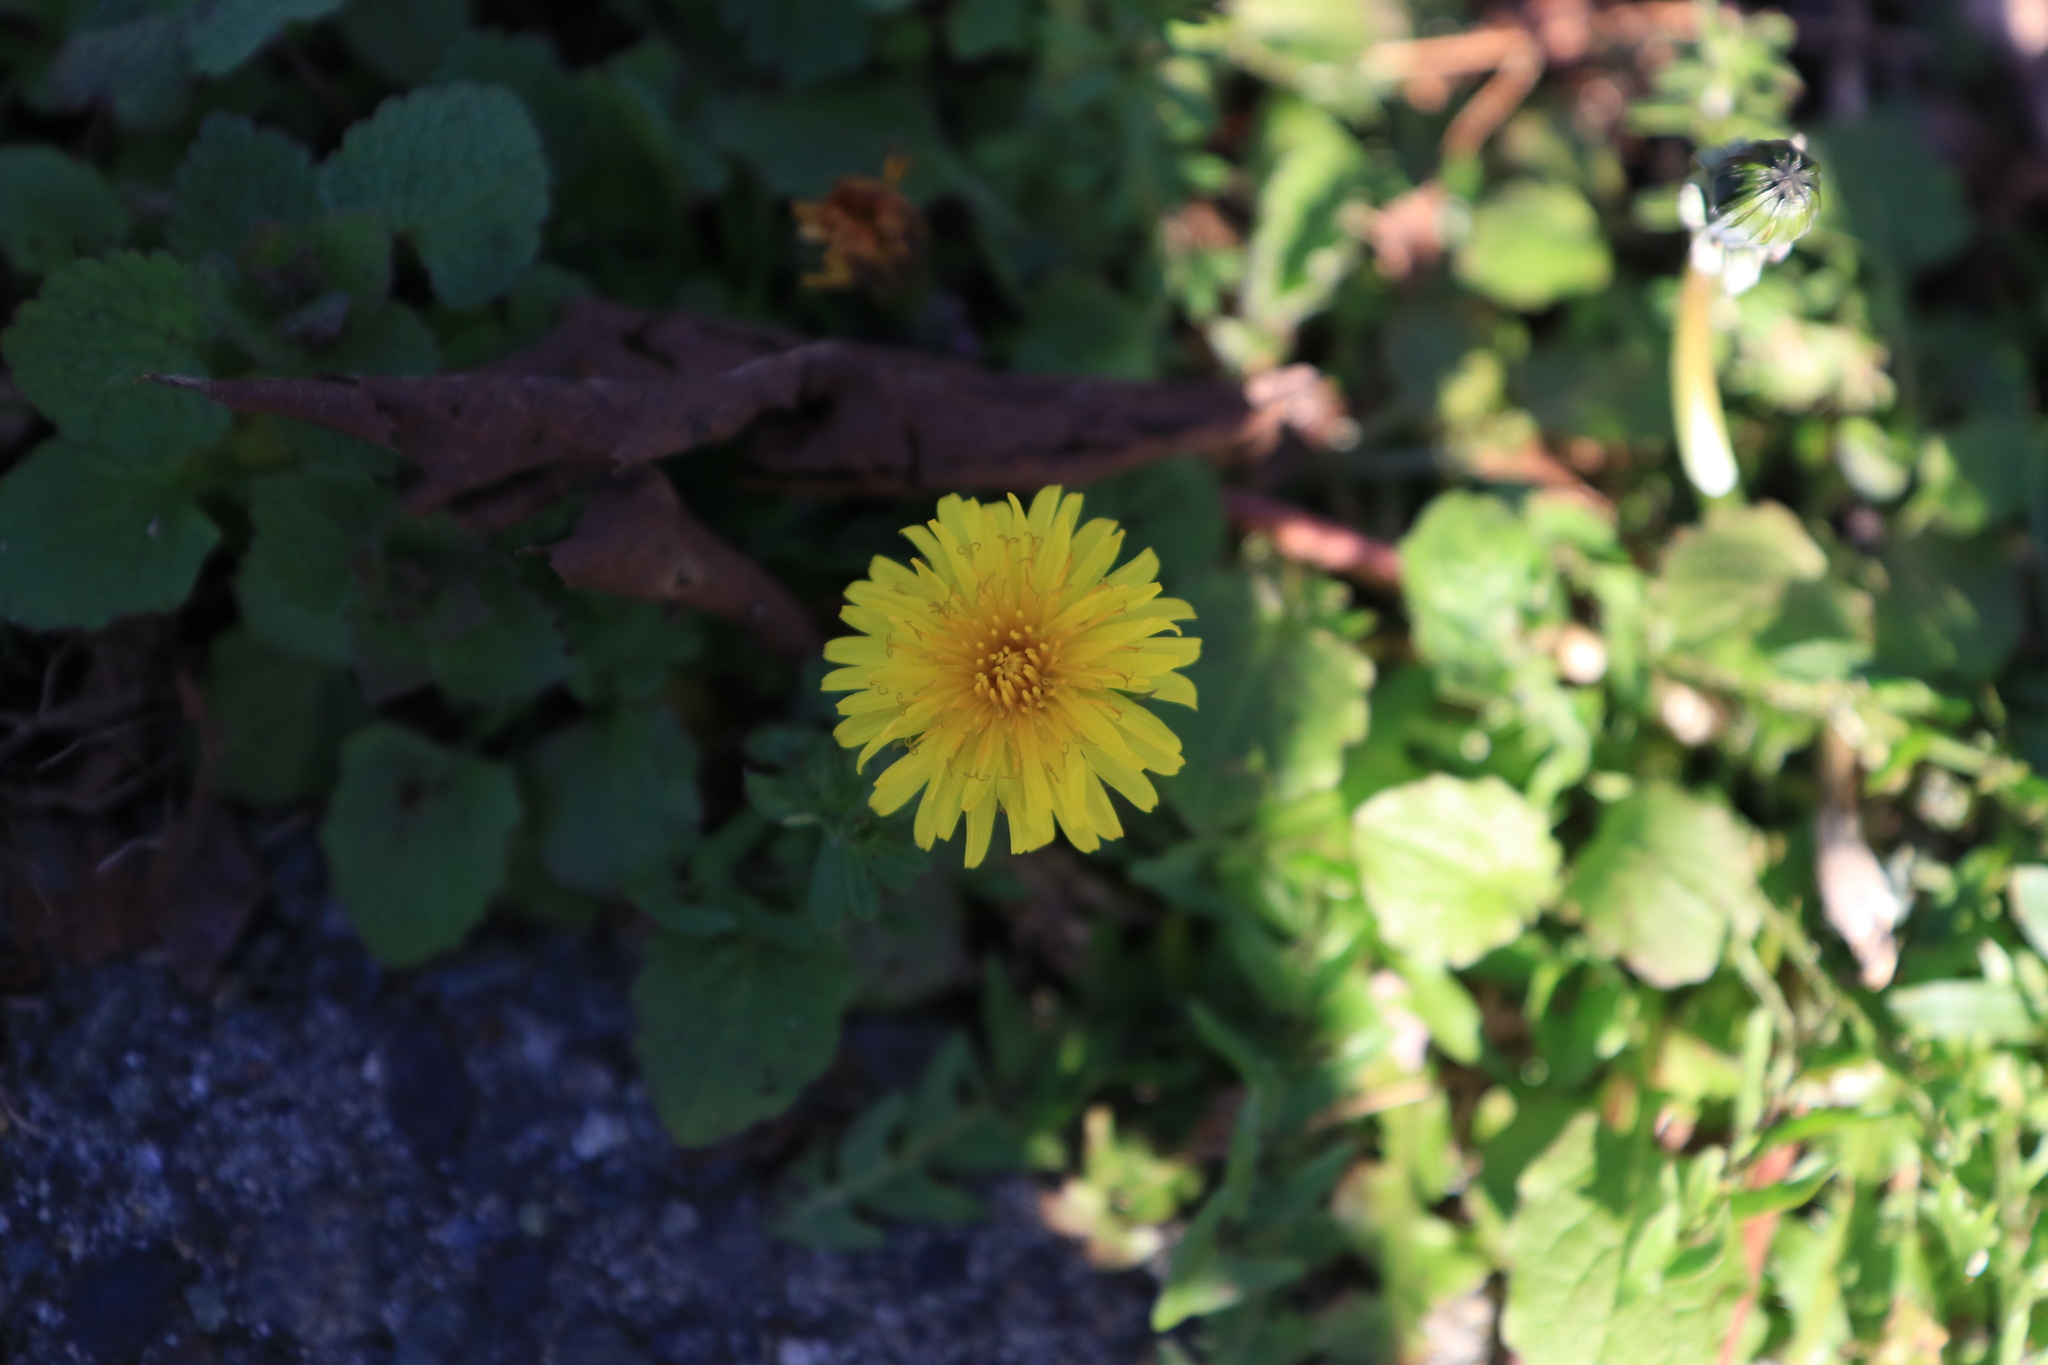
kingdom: Plantae
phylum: Tracheophyta
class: Magnoliopsida
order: Asterales
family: Asteraceae
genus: Taraxacum
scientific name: Taraxacum officinale
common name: Common dandelion
